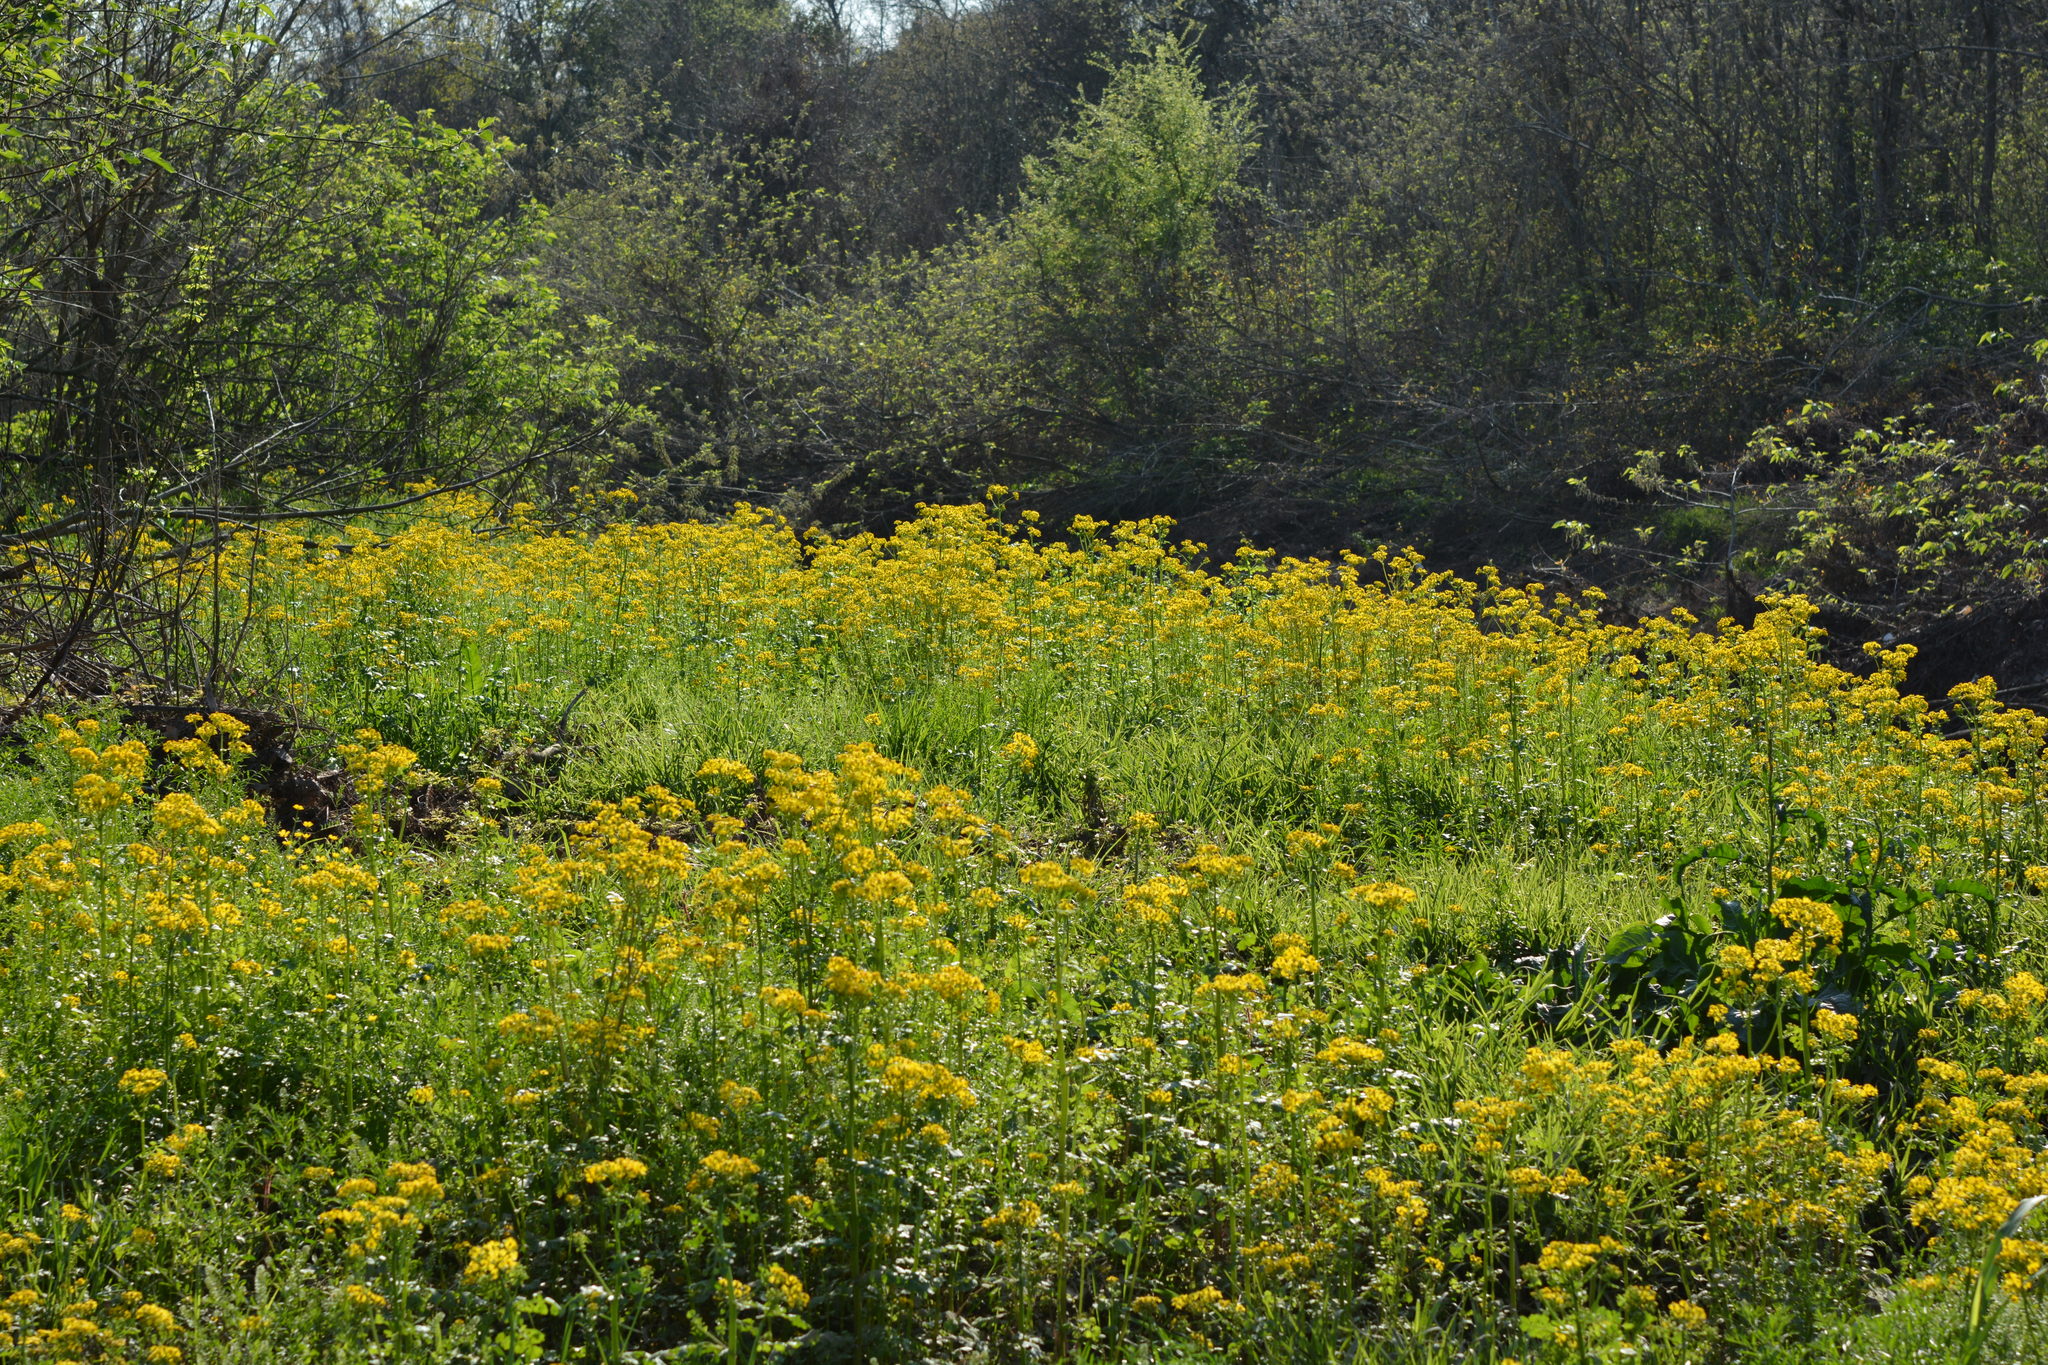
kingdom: Plantae
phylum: Tracheophyta
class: Magnoliopsida
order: Asterales
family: Asteraceae
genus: Packera
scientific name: Packera glabella
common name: Butterweed
